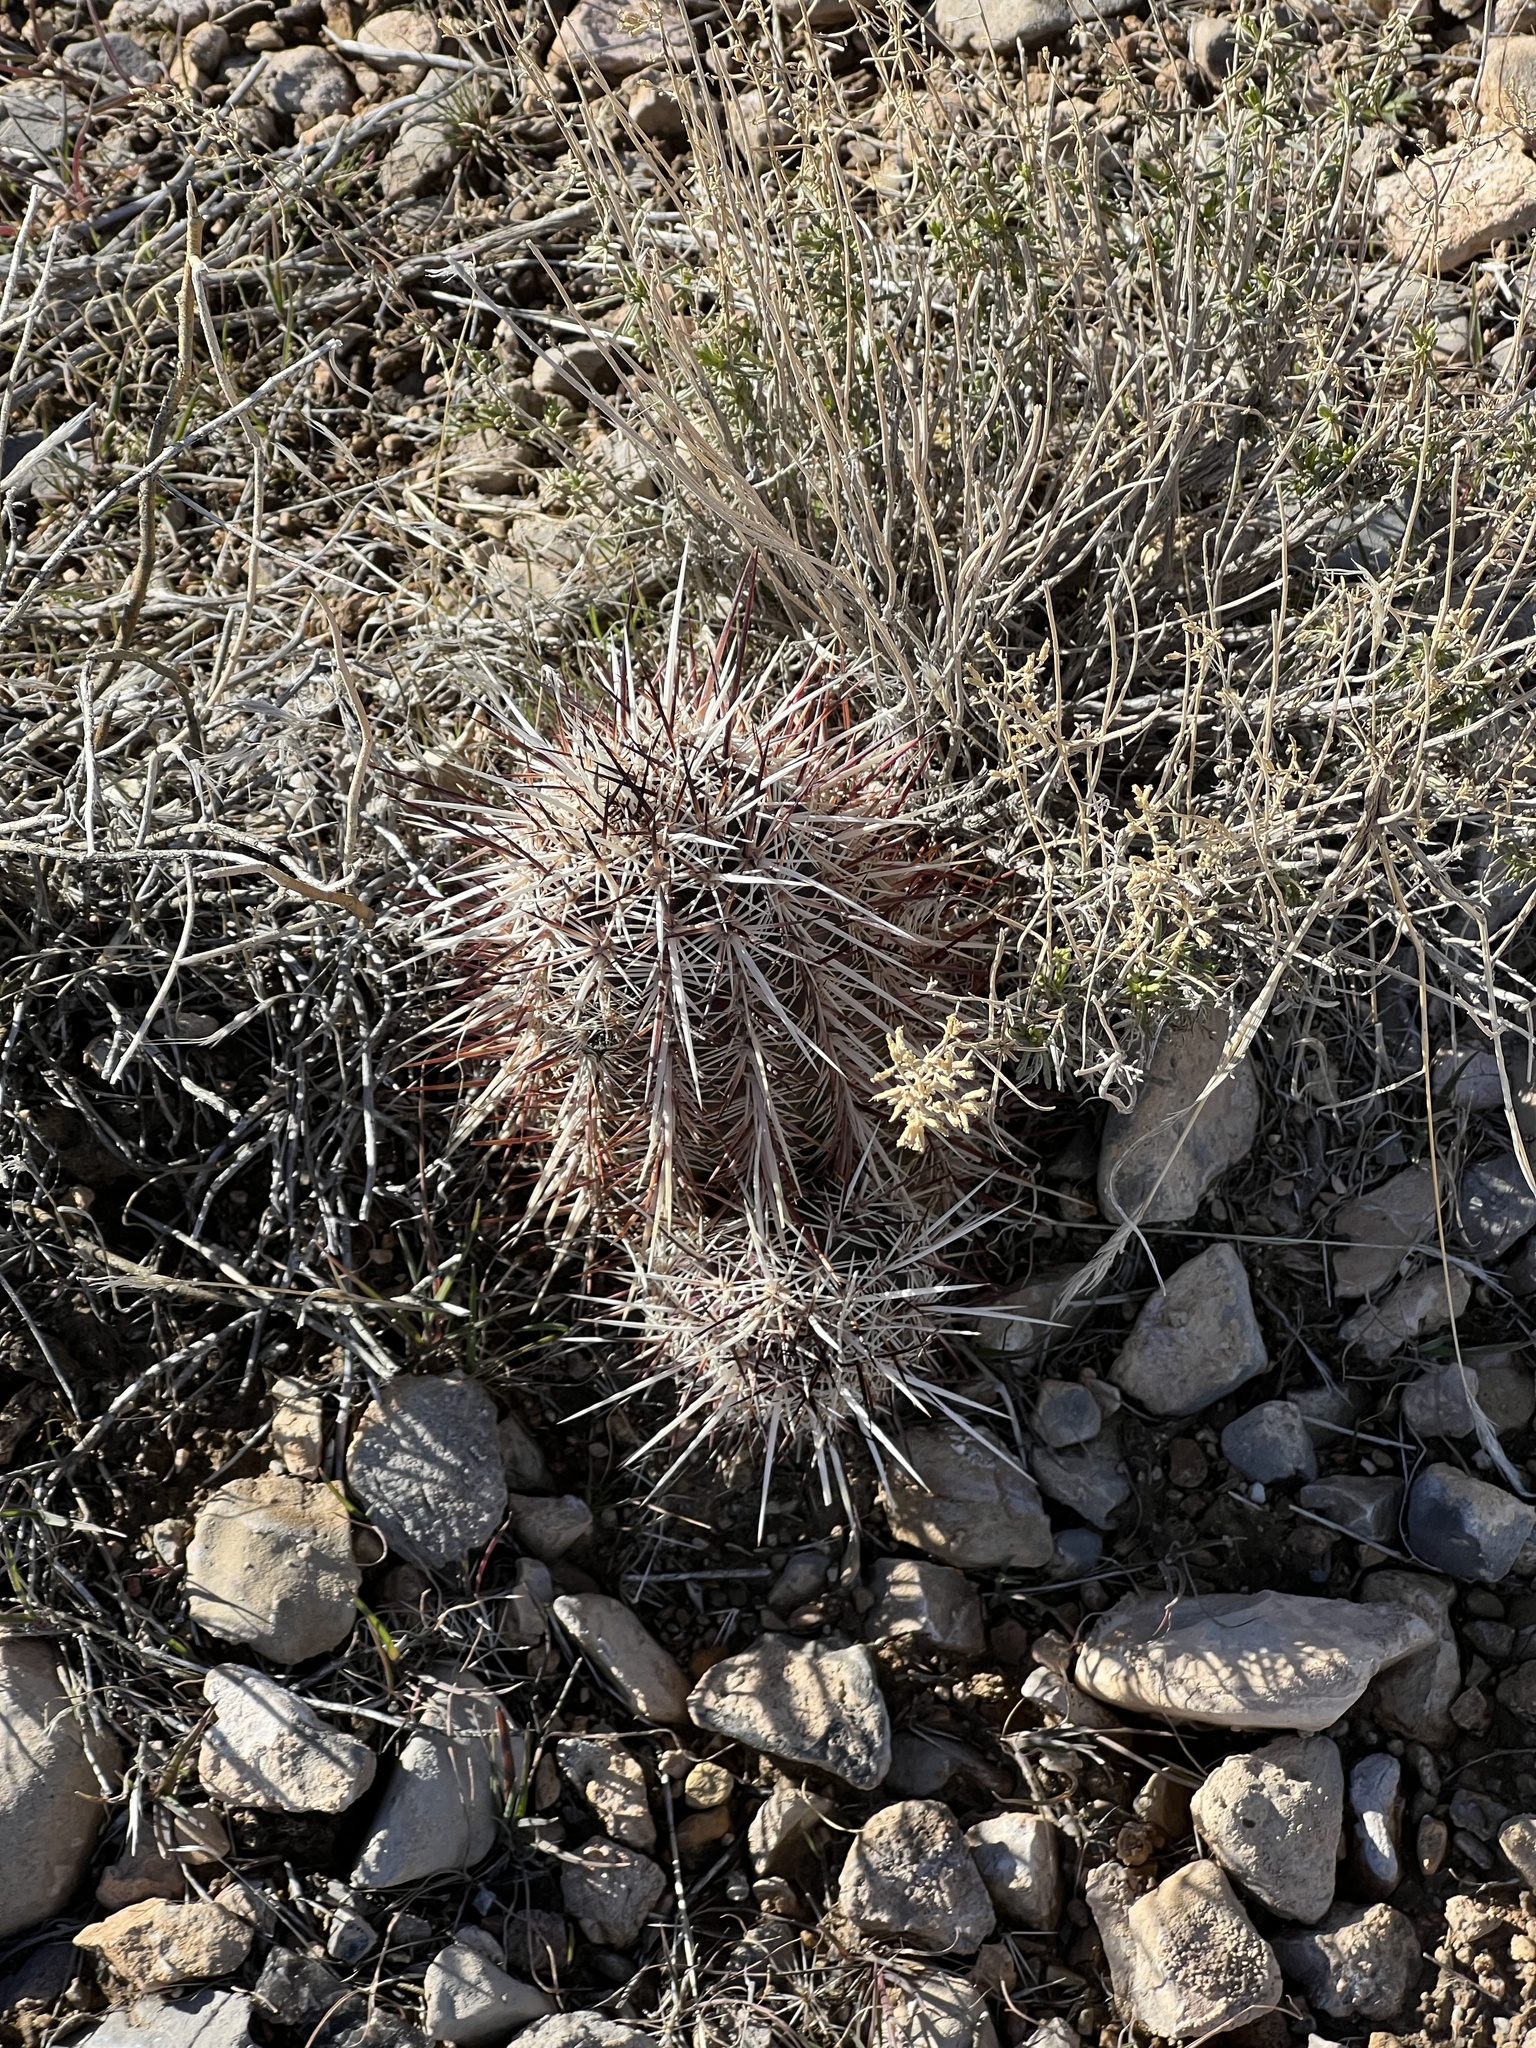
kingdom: Plantae
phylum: Tracheophyta
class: Magnoliopsida
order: Caryophyllales
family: Cactaceae
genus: Echinocereus
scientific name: Echinocereus engelmannii
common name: Engelmann's hedgehog cactus
